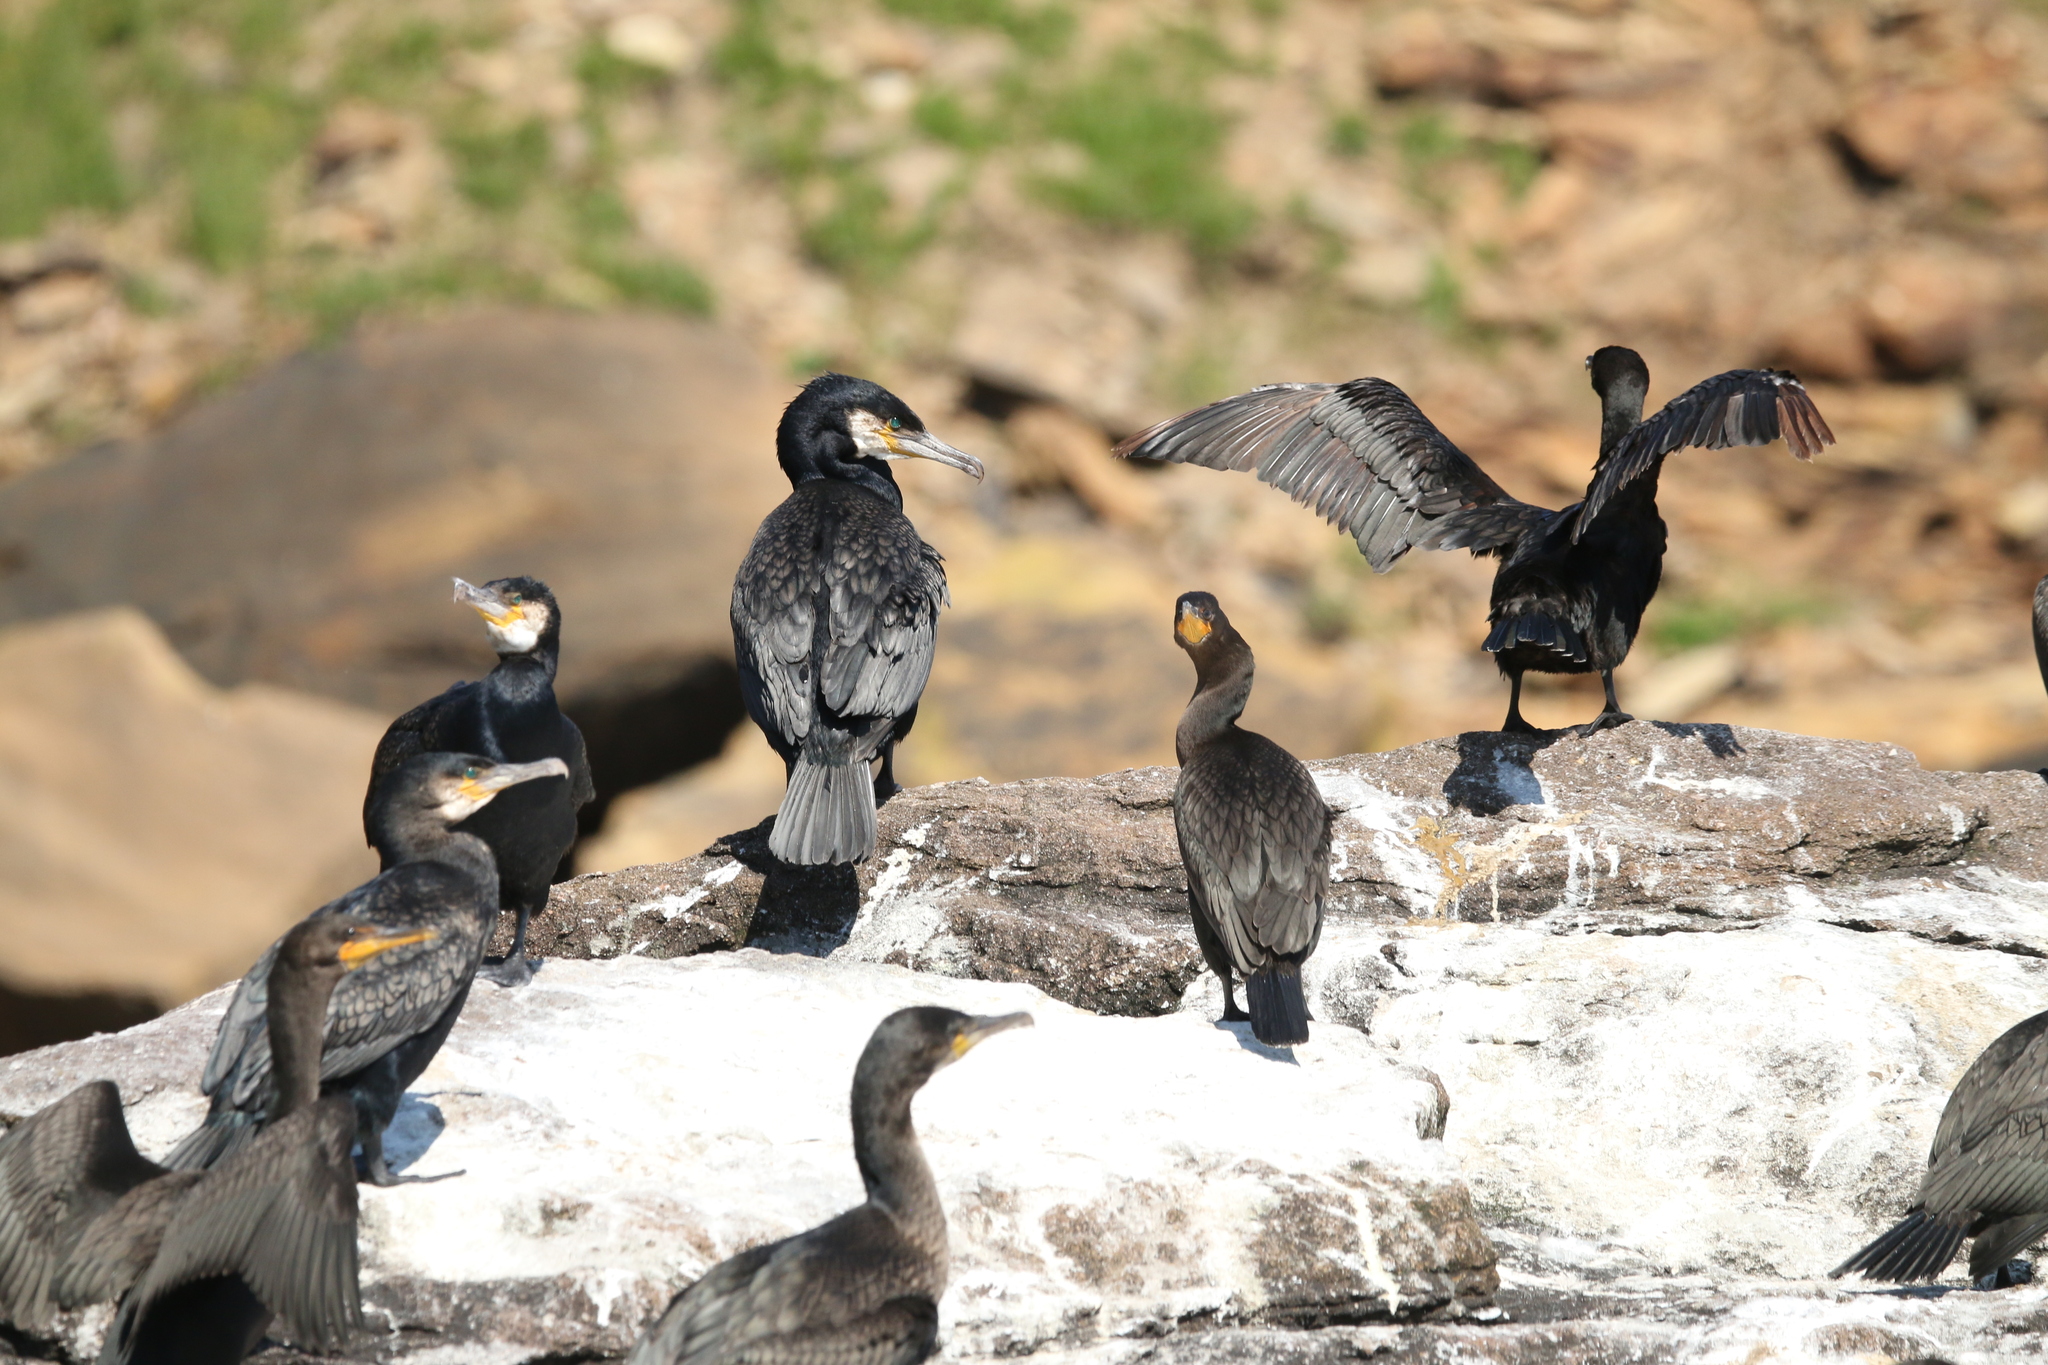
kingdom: Animalia
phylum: Chordata
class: Aves
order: Suliformes
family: Phalacrocoracidae
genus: Phalacrocorax
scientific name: Phalacrocorax carbo
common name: Great cormorant
